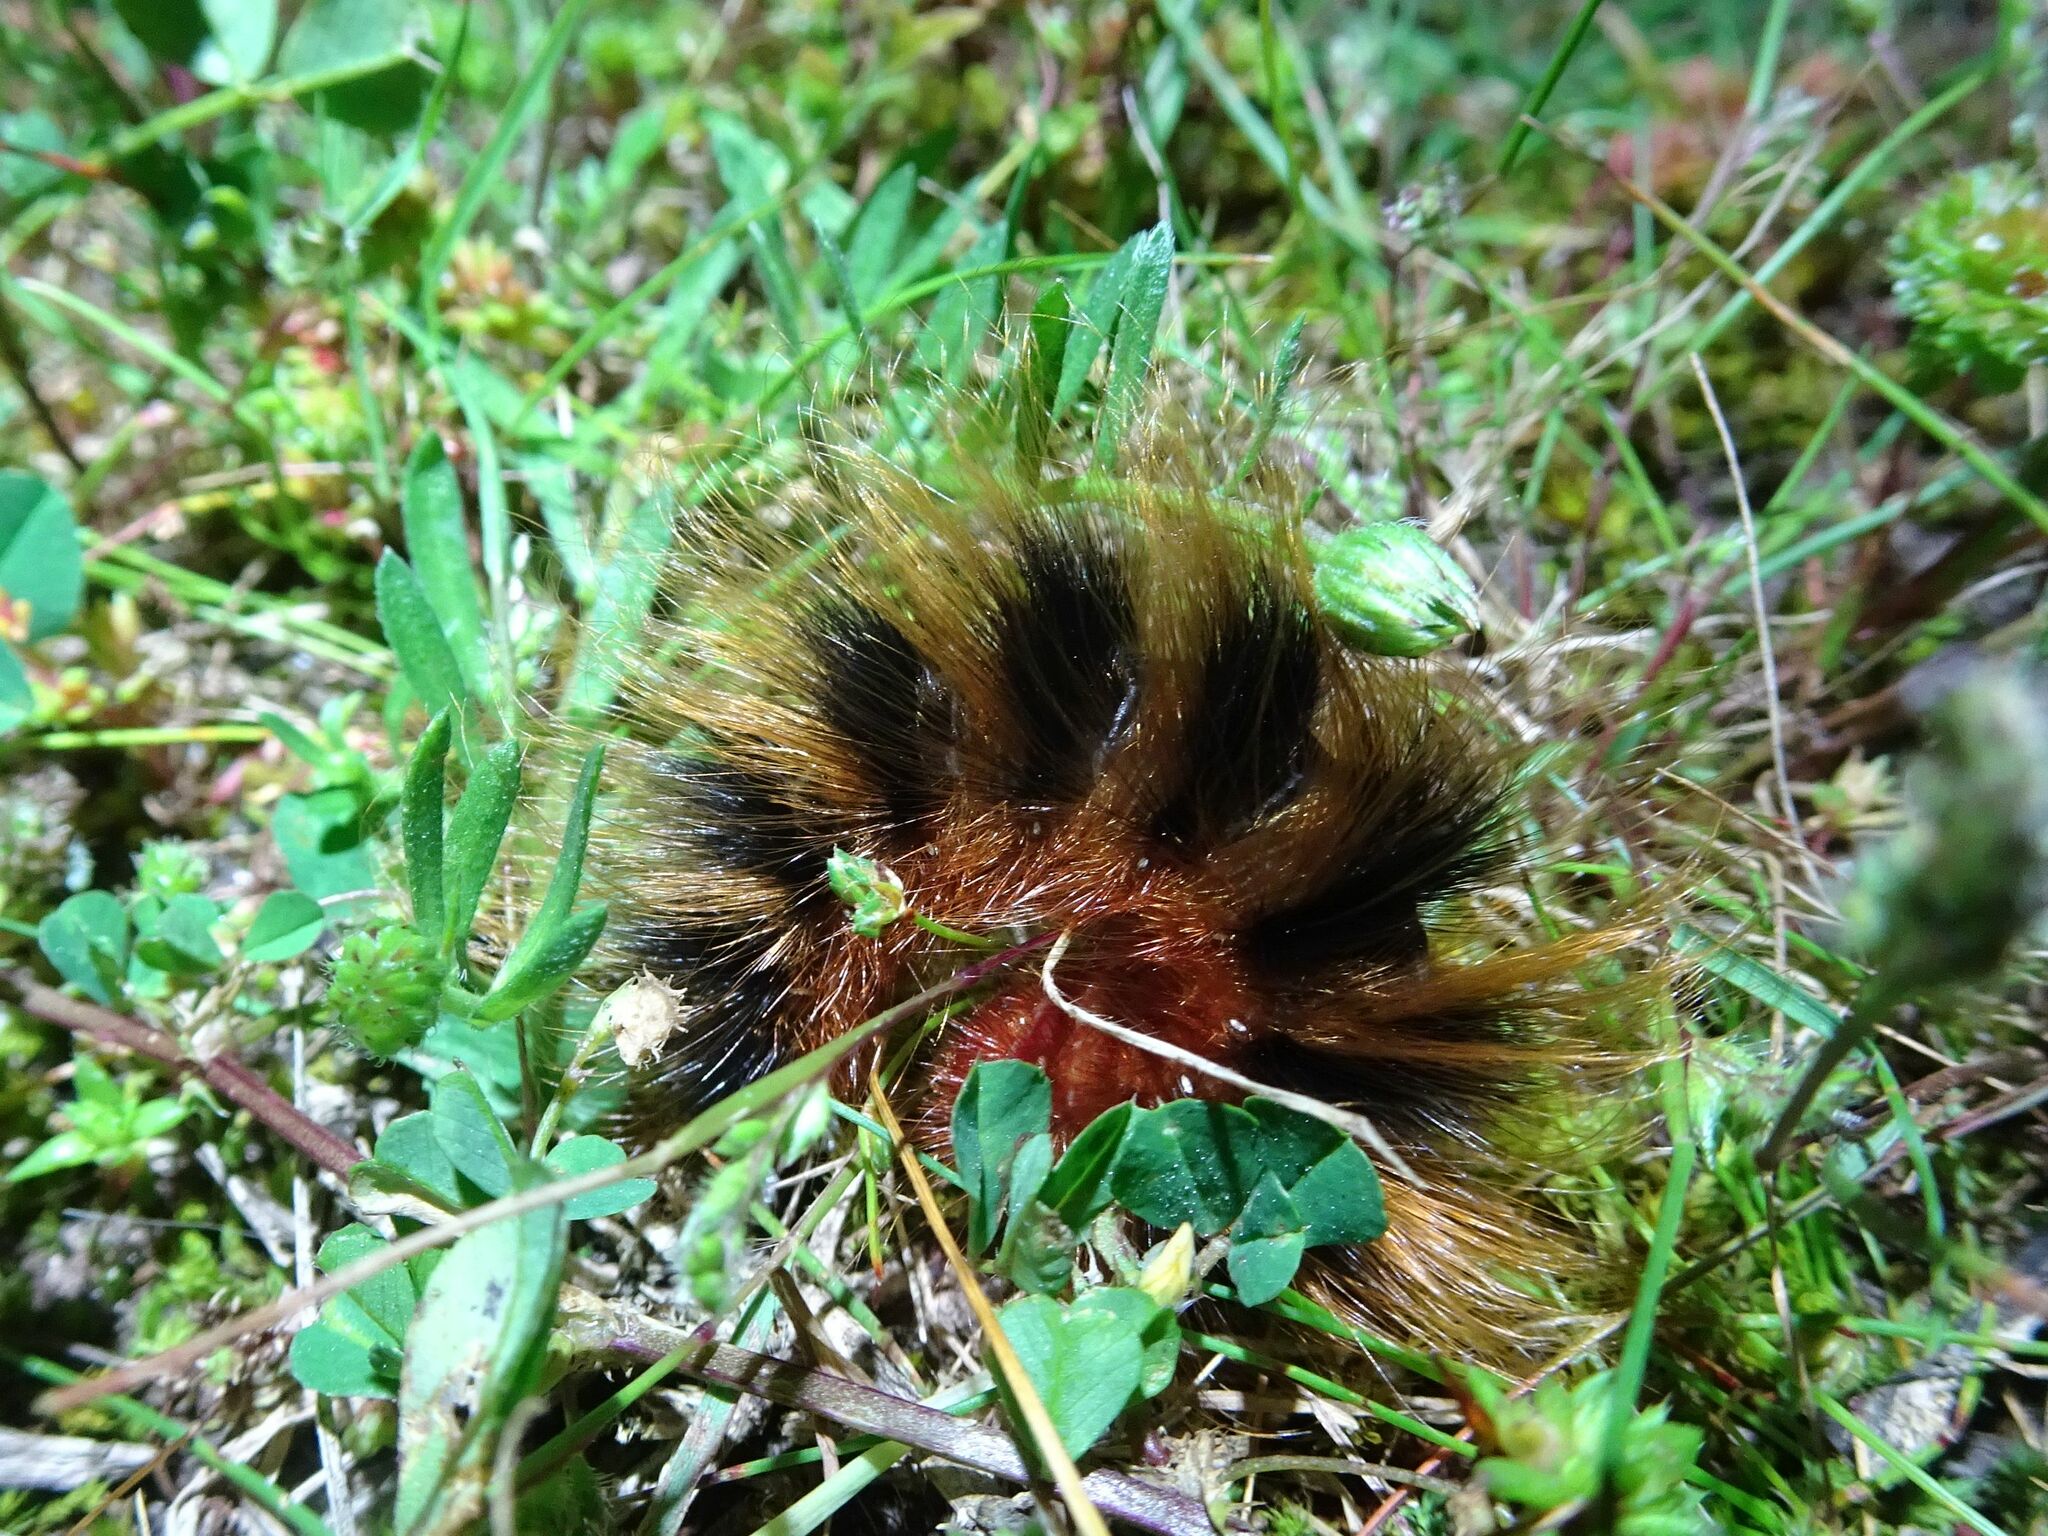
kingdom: Animalia
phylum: Arthropoda
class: Insecta
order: Lepidoptera
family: Eupterotidae
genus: Phyllalia
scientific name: Phyllalia patens
